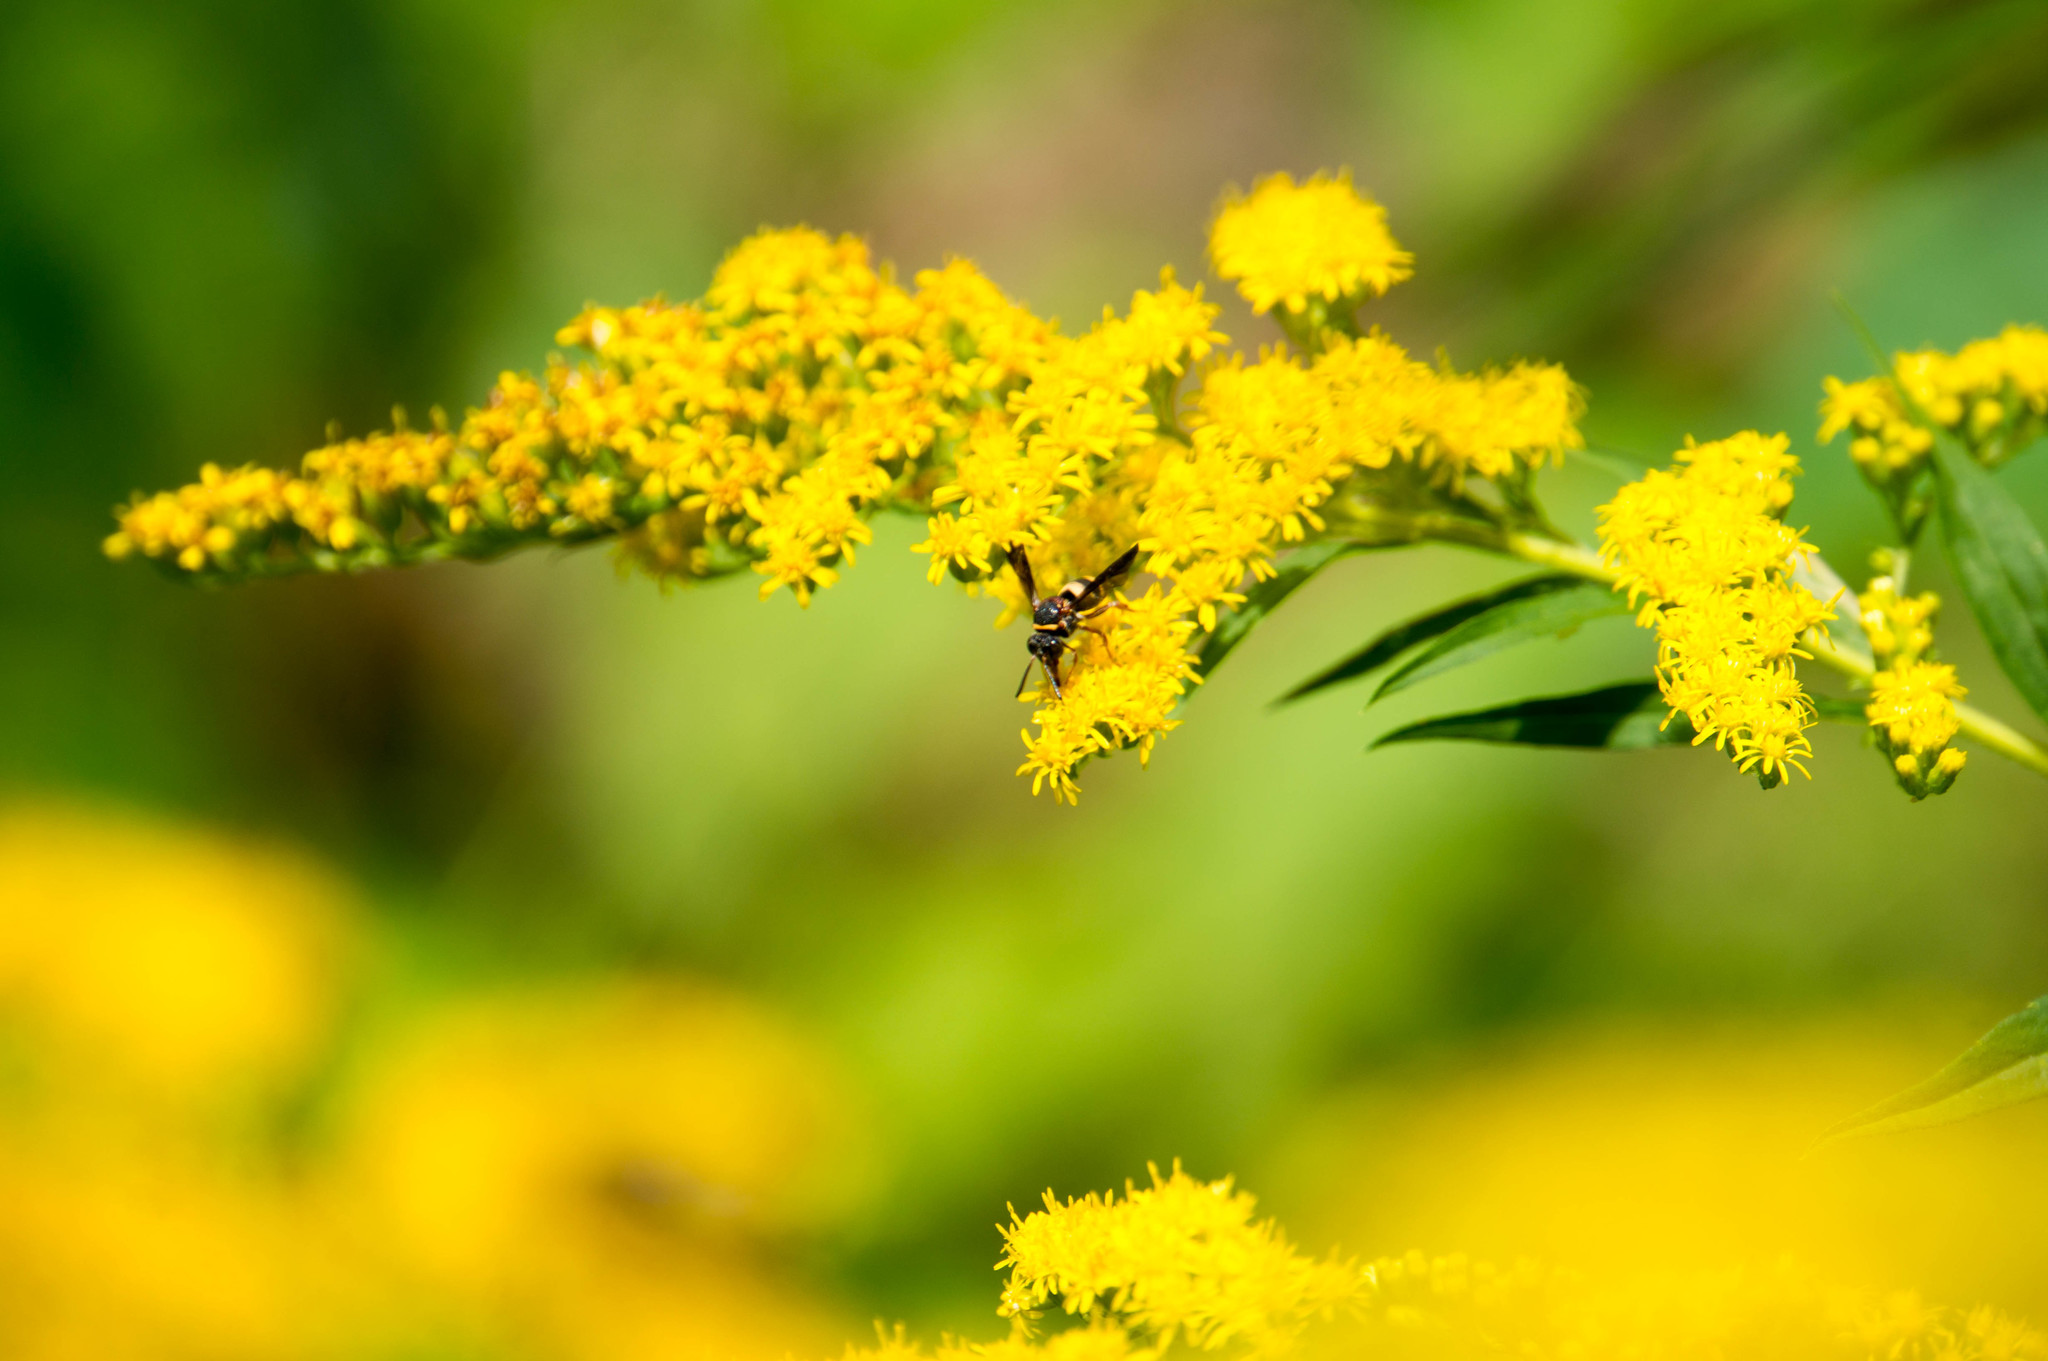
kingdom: Animalia
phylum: Arthropoda
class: Insecta
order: Hymenoptera
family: Apidae
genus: Epeolus
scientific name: Epeolus bifasciatus
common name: Two-banded cellophane-cuckoo
